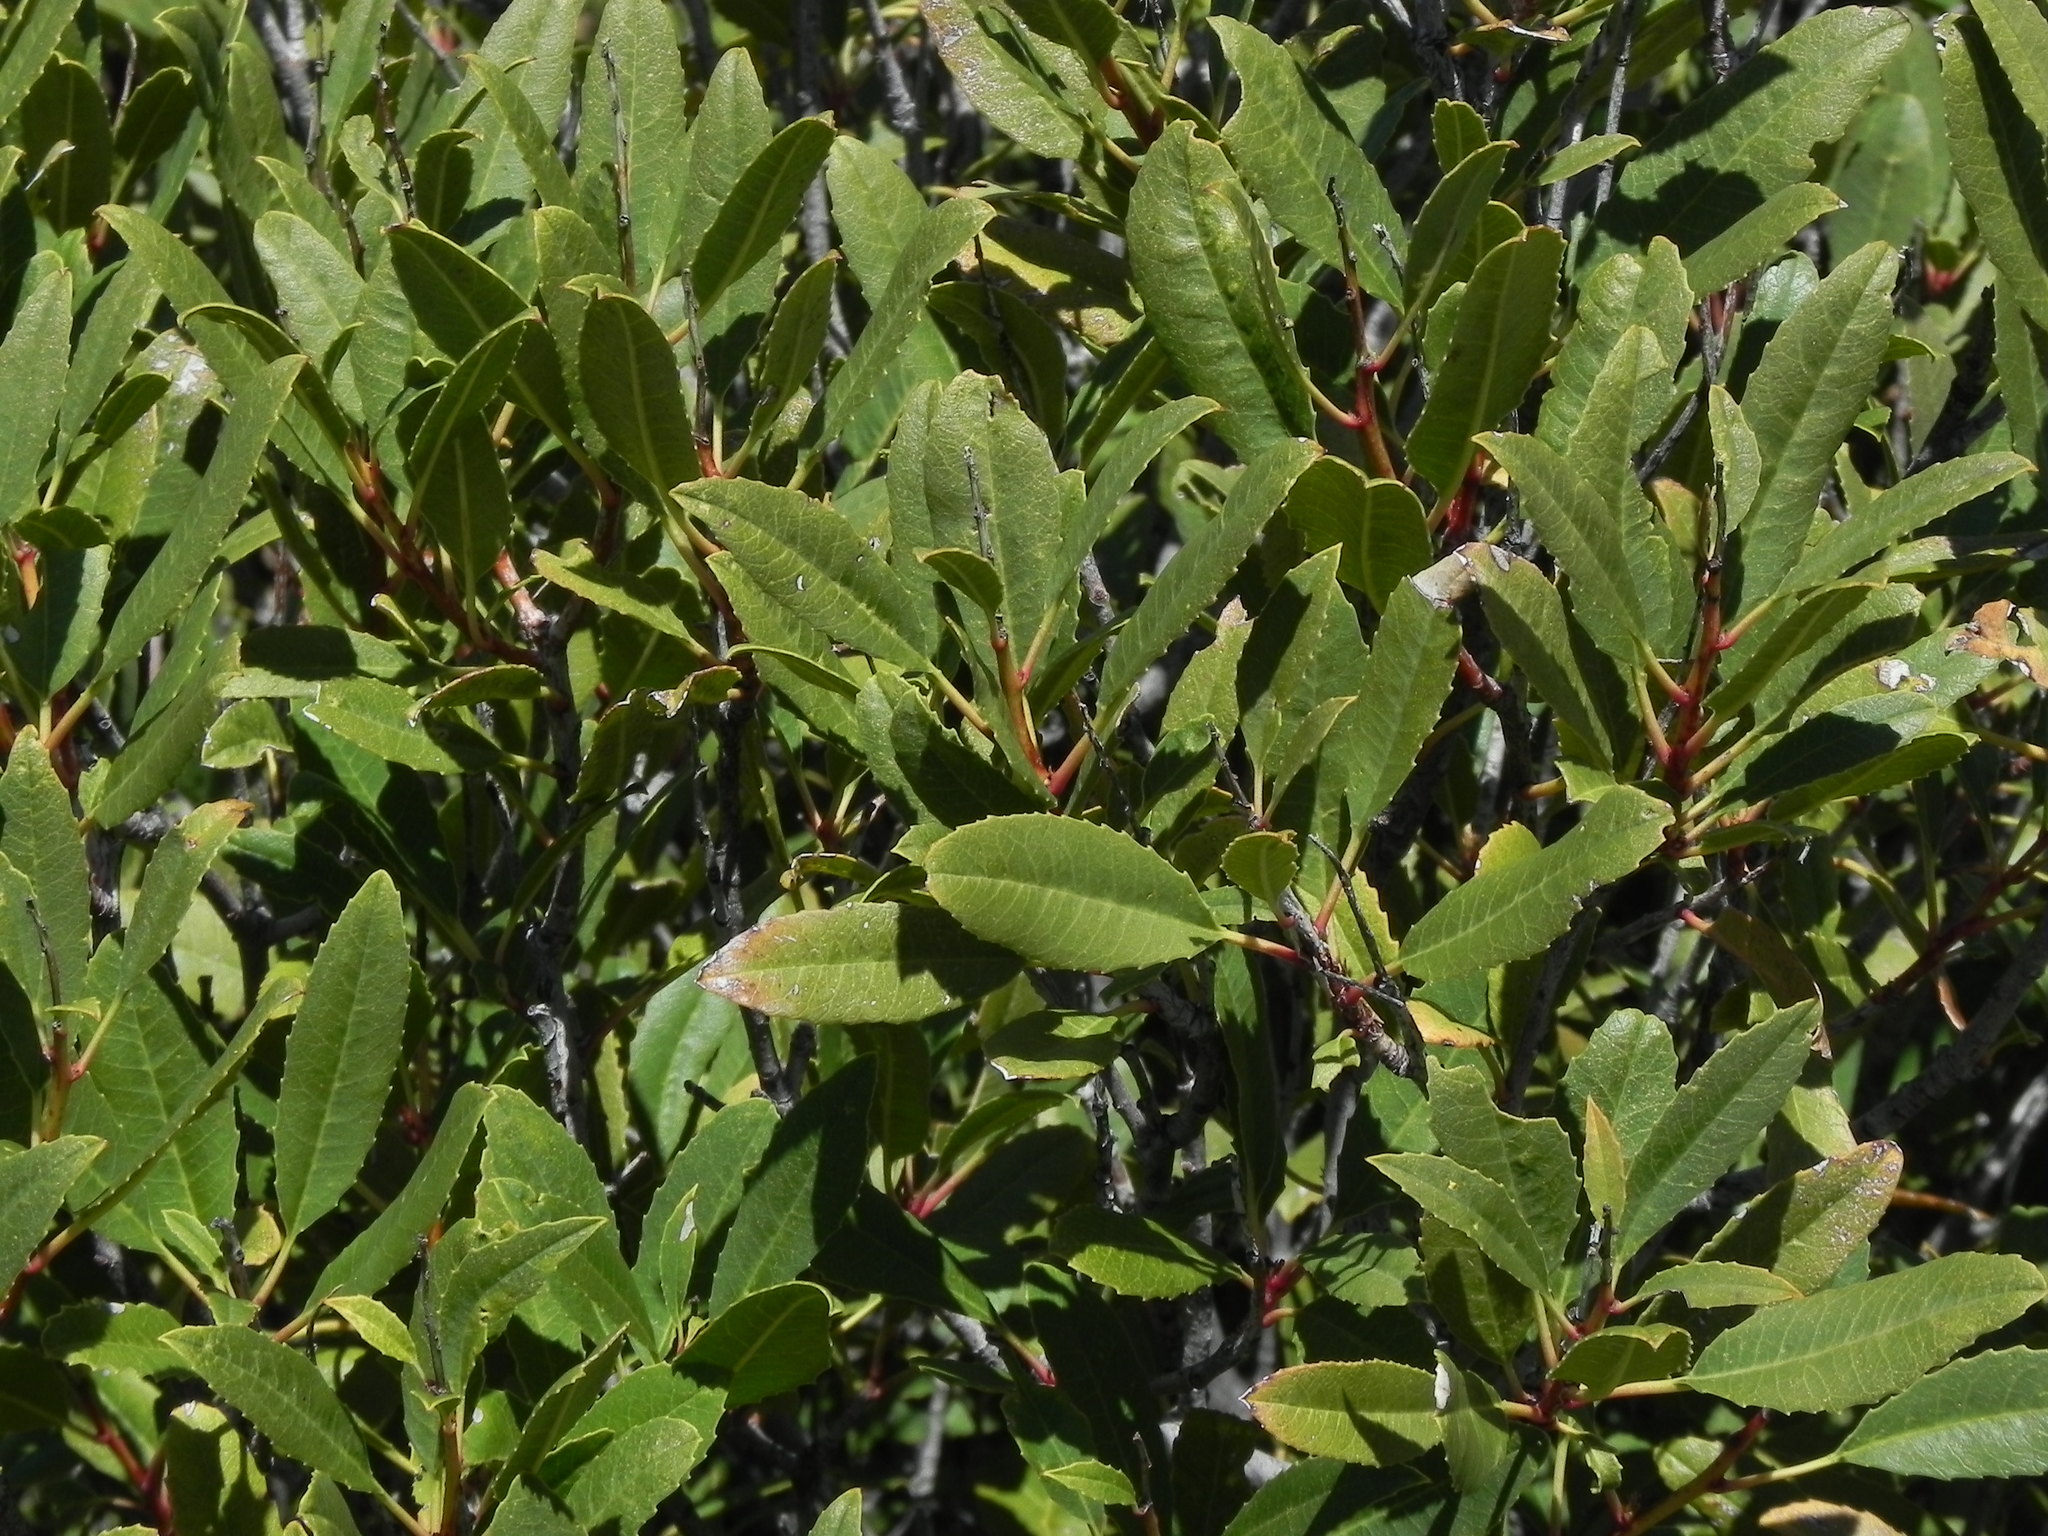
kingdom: Plantae
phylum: Tracheophyta
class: Magnoliopsida
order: Rosales
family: Rosaceae
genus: Heteromeles
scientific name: Heteromeles arbutifolia
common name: California-holly
